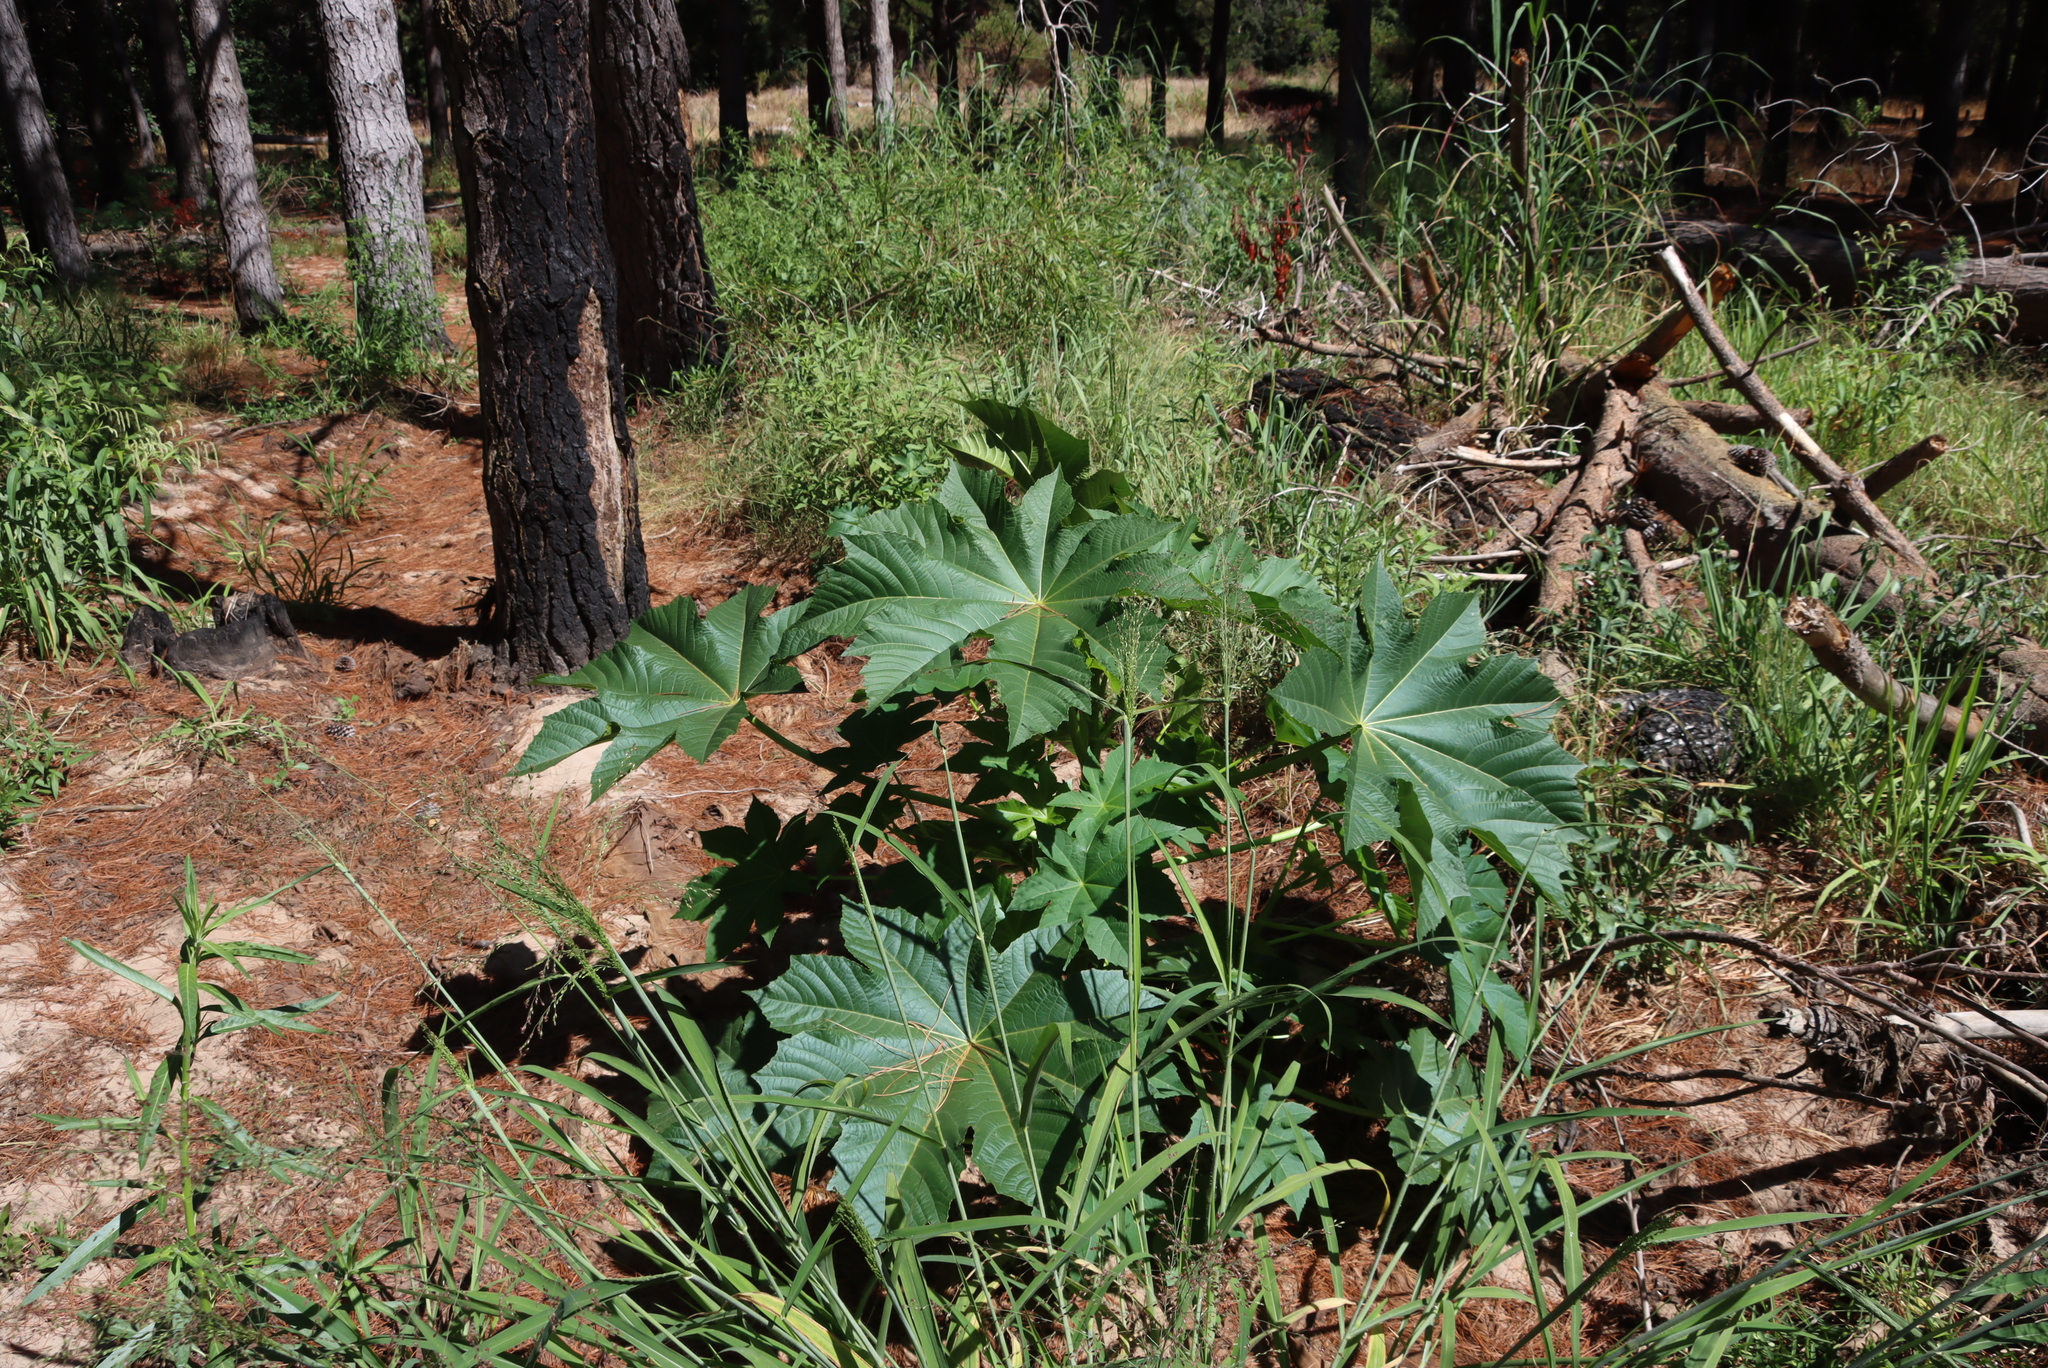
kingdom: Plantae
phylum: Tracheophyta
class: Magnoliopsida
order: Malpighiales
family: Euphorbiaceae
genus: Ricinus
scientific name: Ricinus communis
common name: Castor-oil-plant
